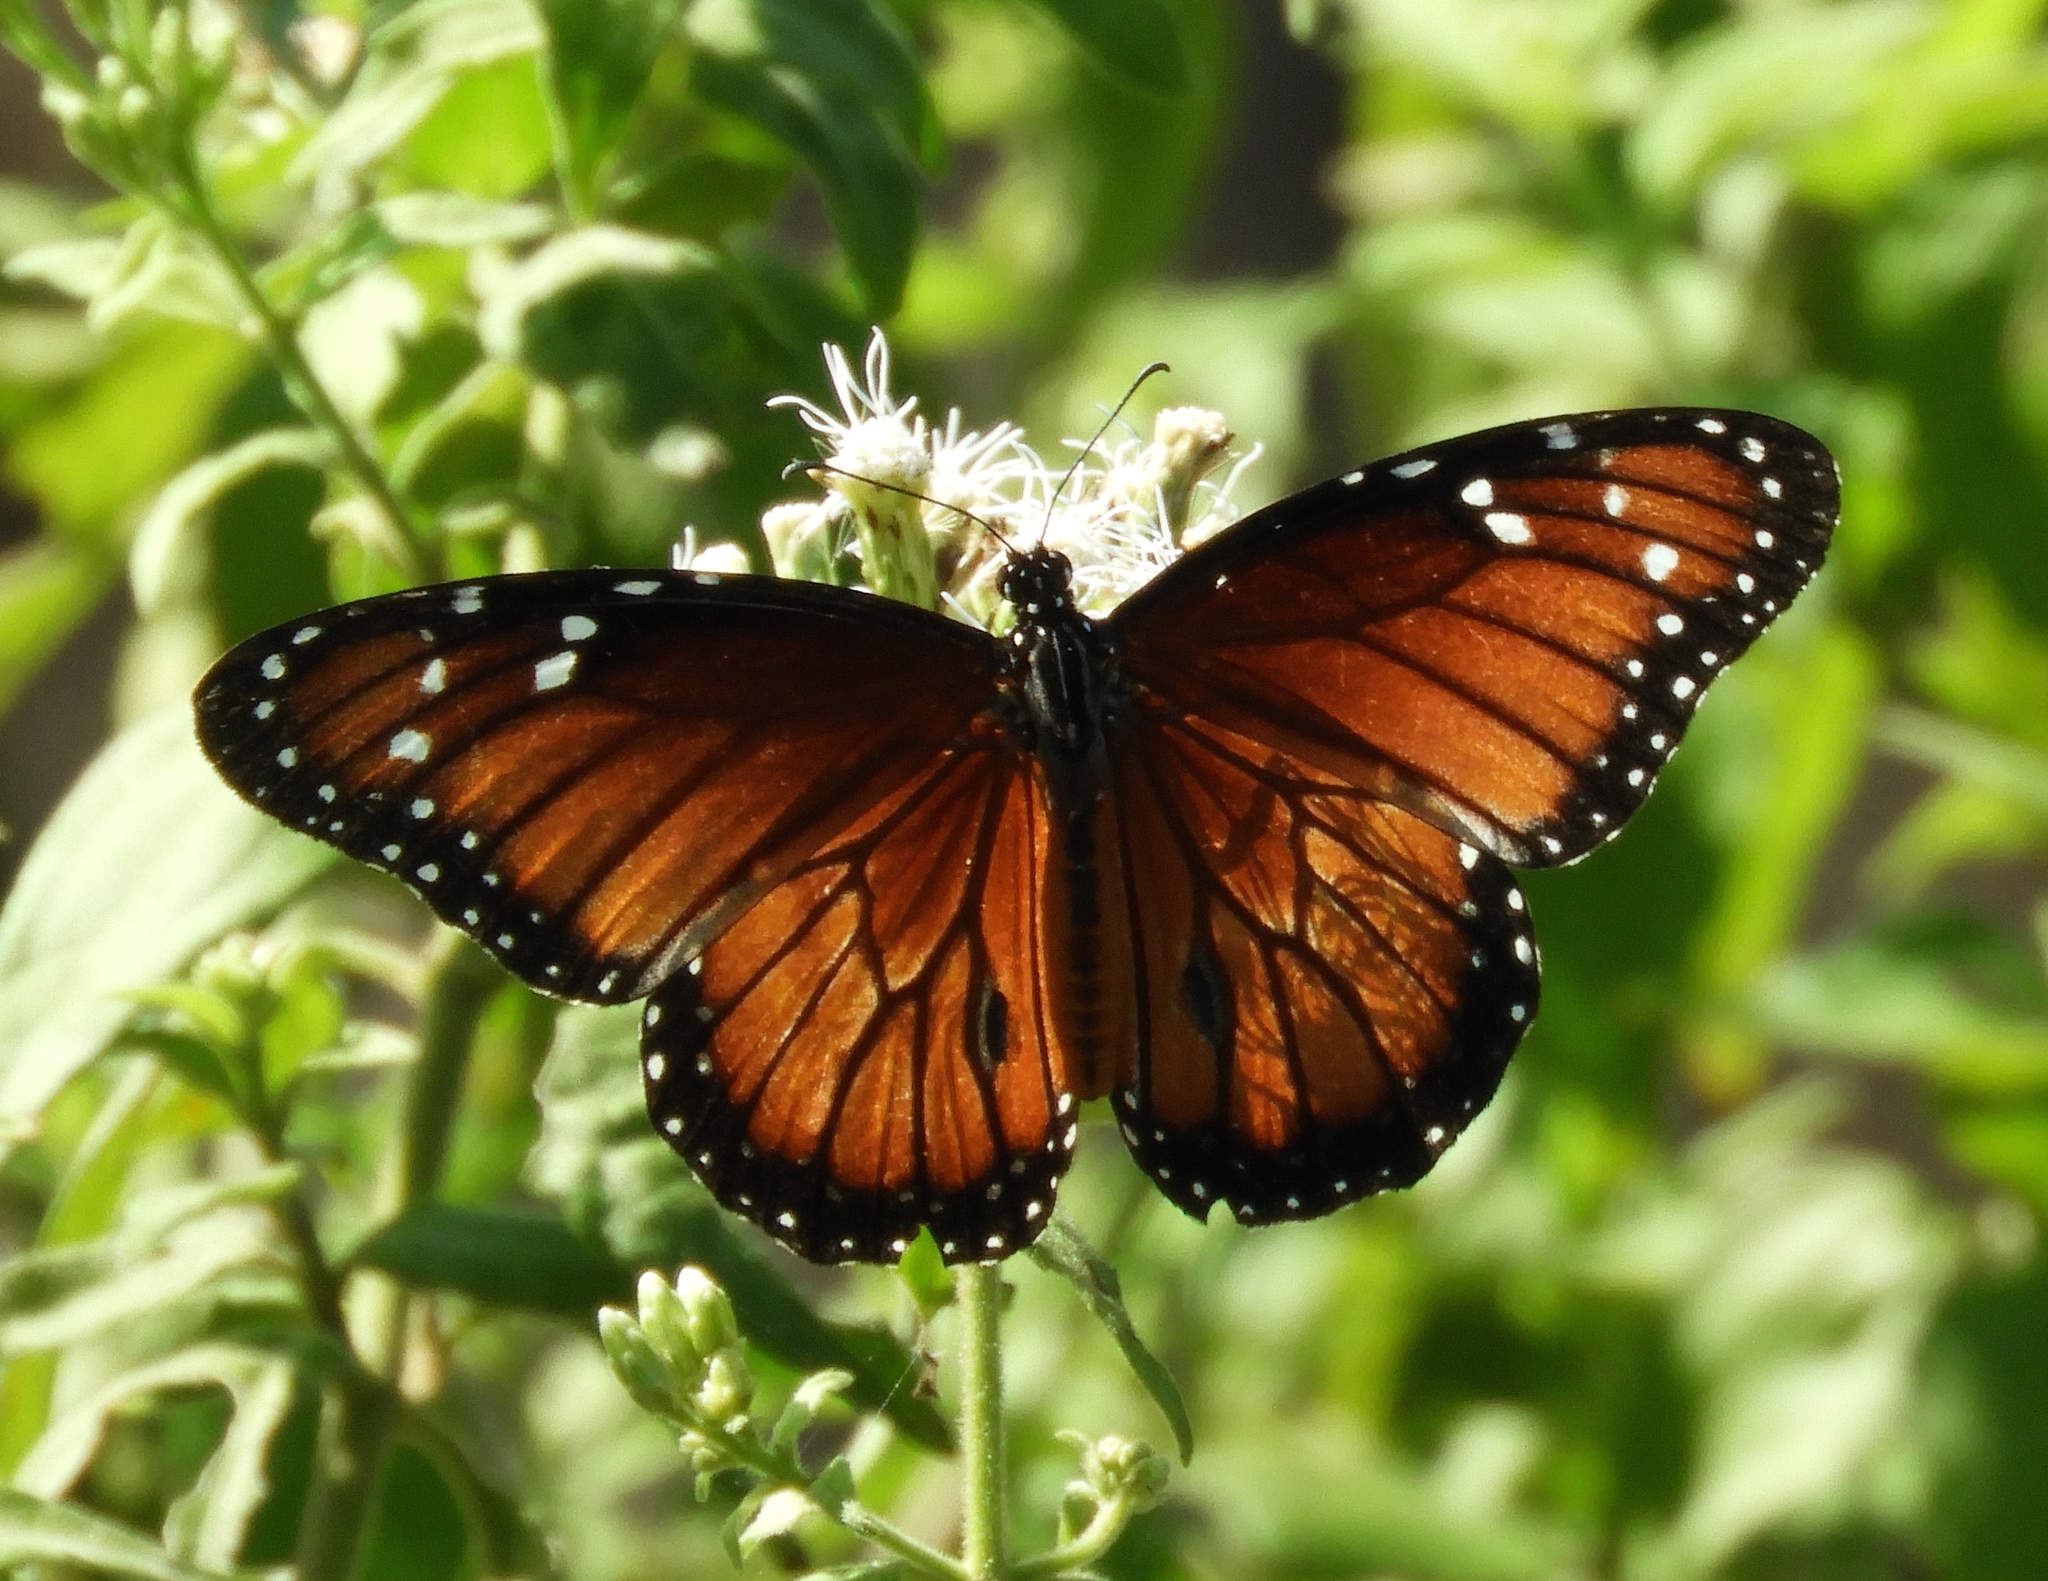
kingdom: Animalia
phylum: Arthropoda
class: Insecta
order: Lepidoptera
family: Nymphalidae
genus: Danaus
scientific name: Danaus eresimus
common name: Soldier
